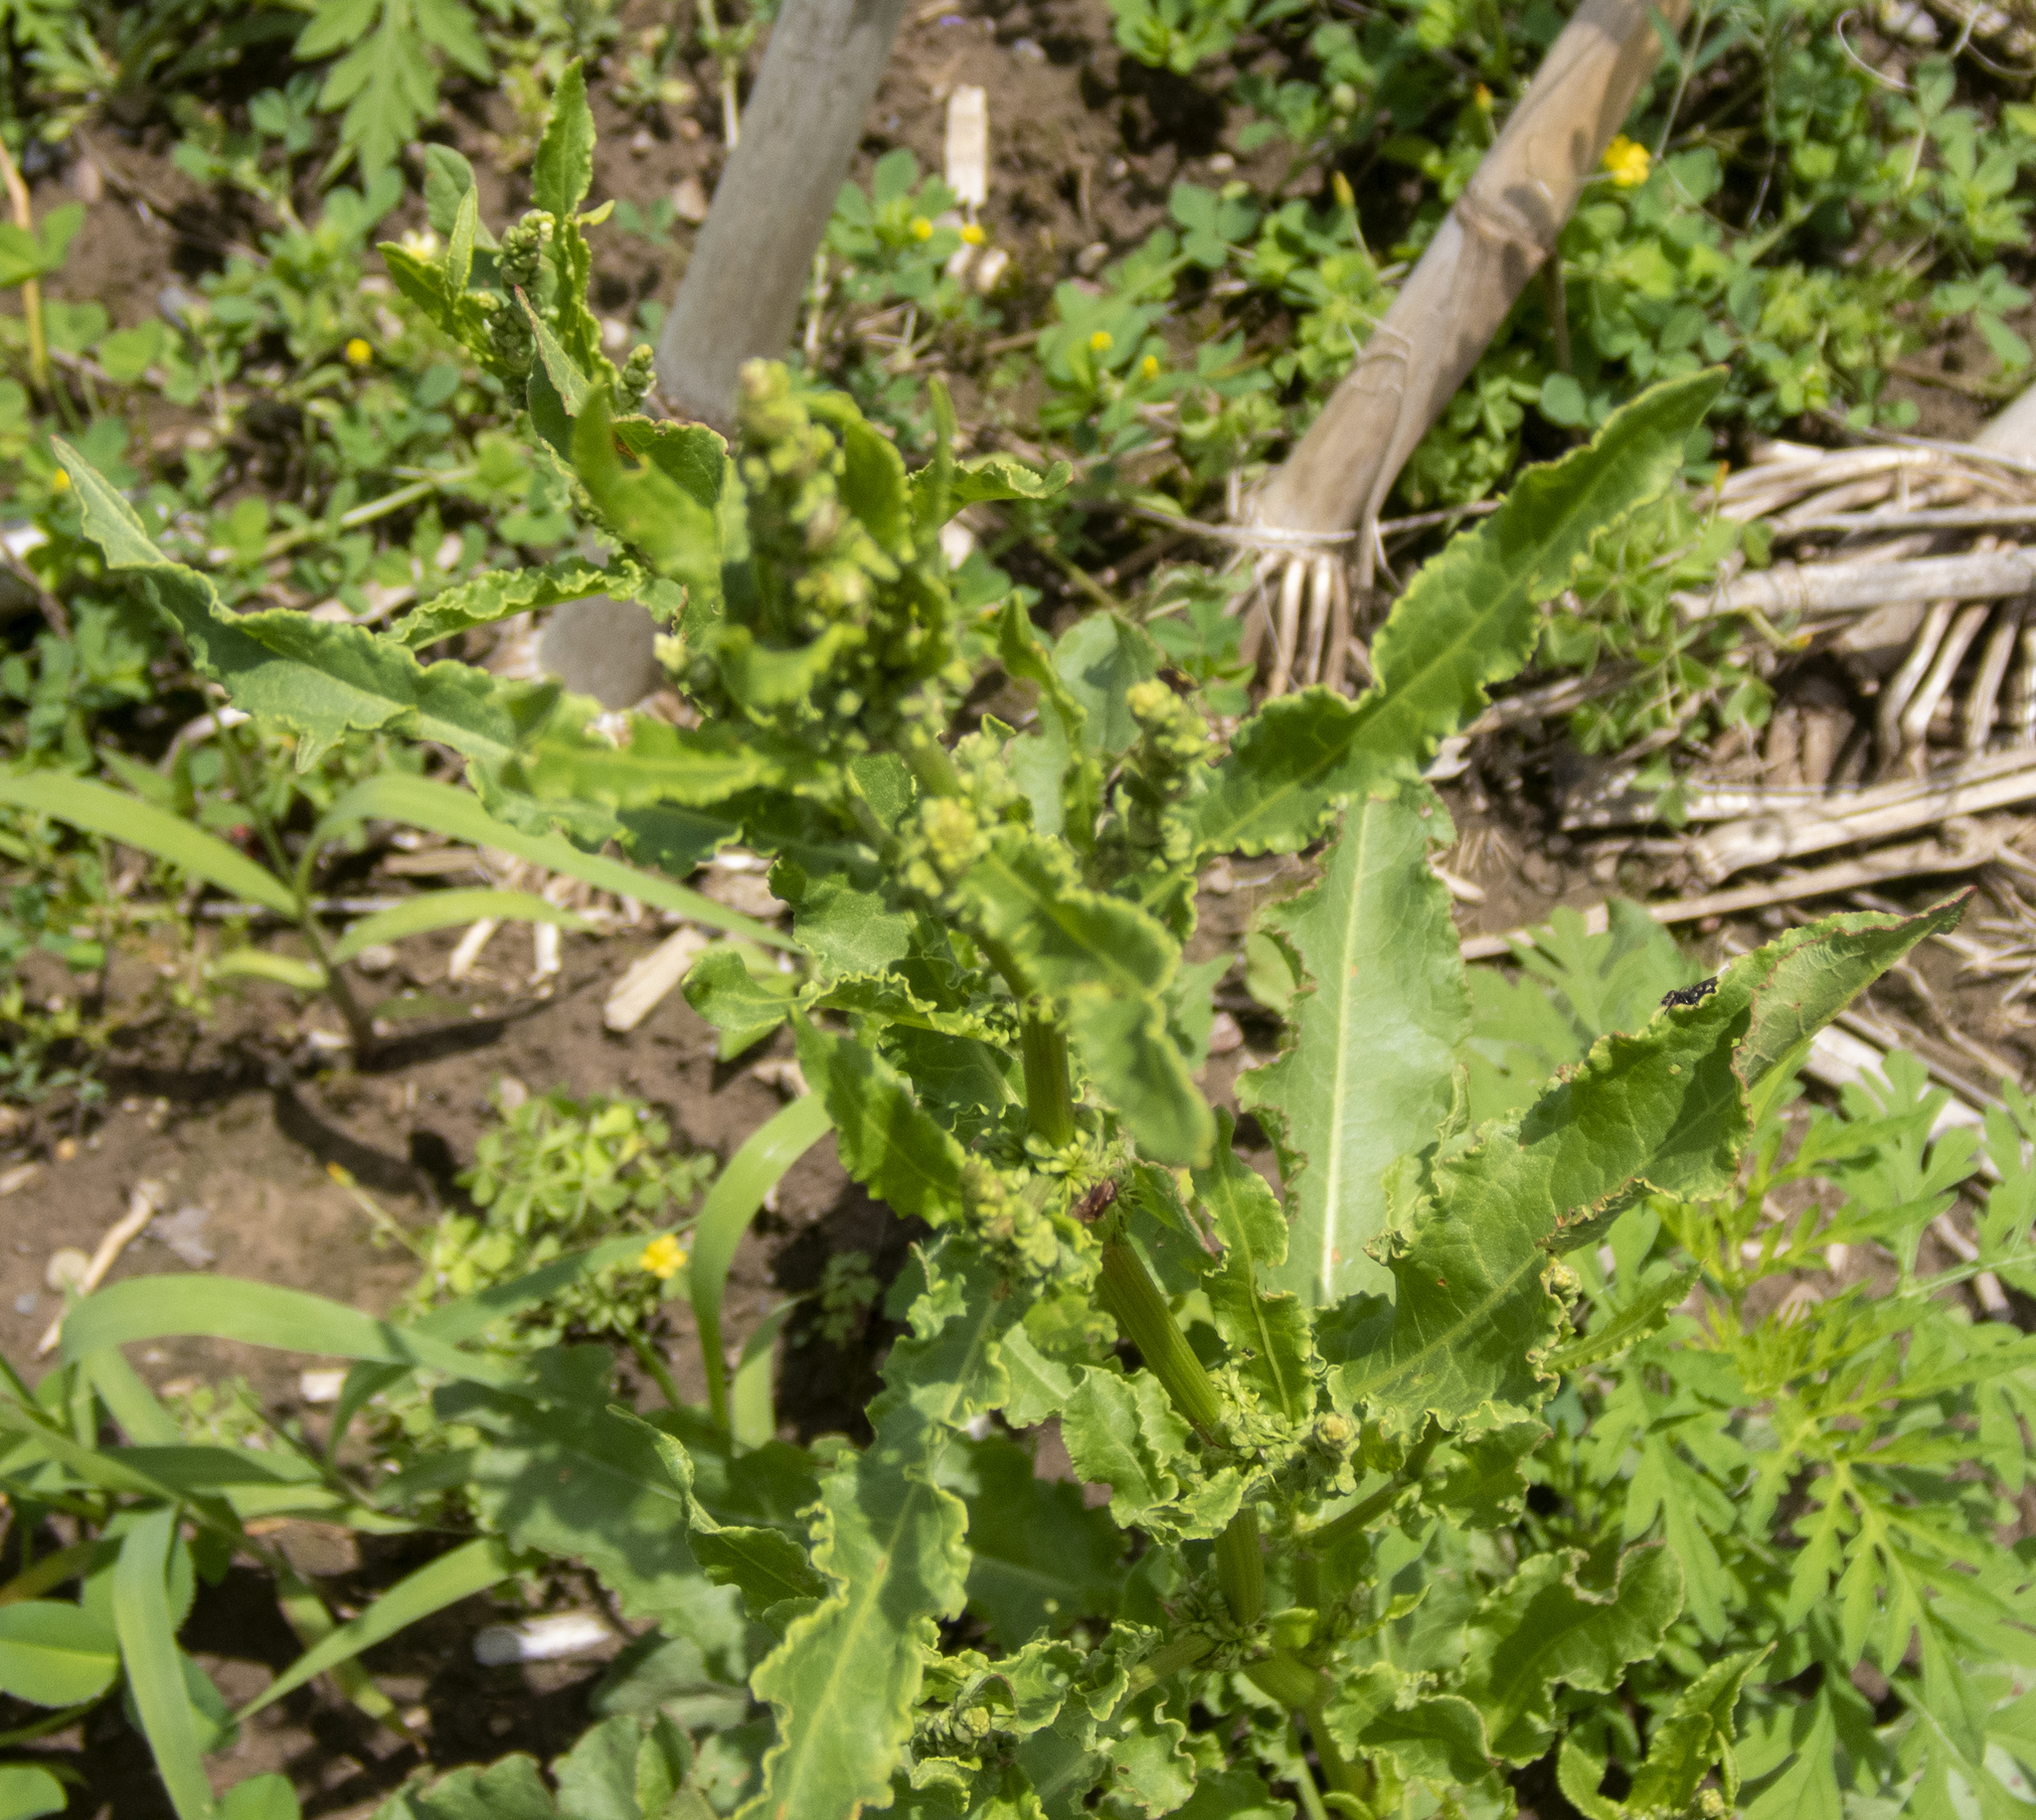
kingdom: Plantae
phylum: Tracheophyta
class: Magnoliopsida
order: Caryophyllales
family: Polygonaceae
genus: Rumex
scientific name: Rumex crispus
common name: Curled dock
